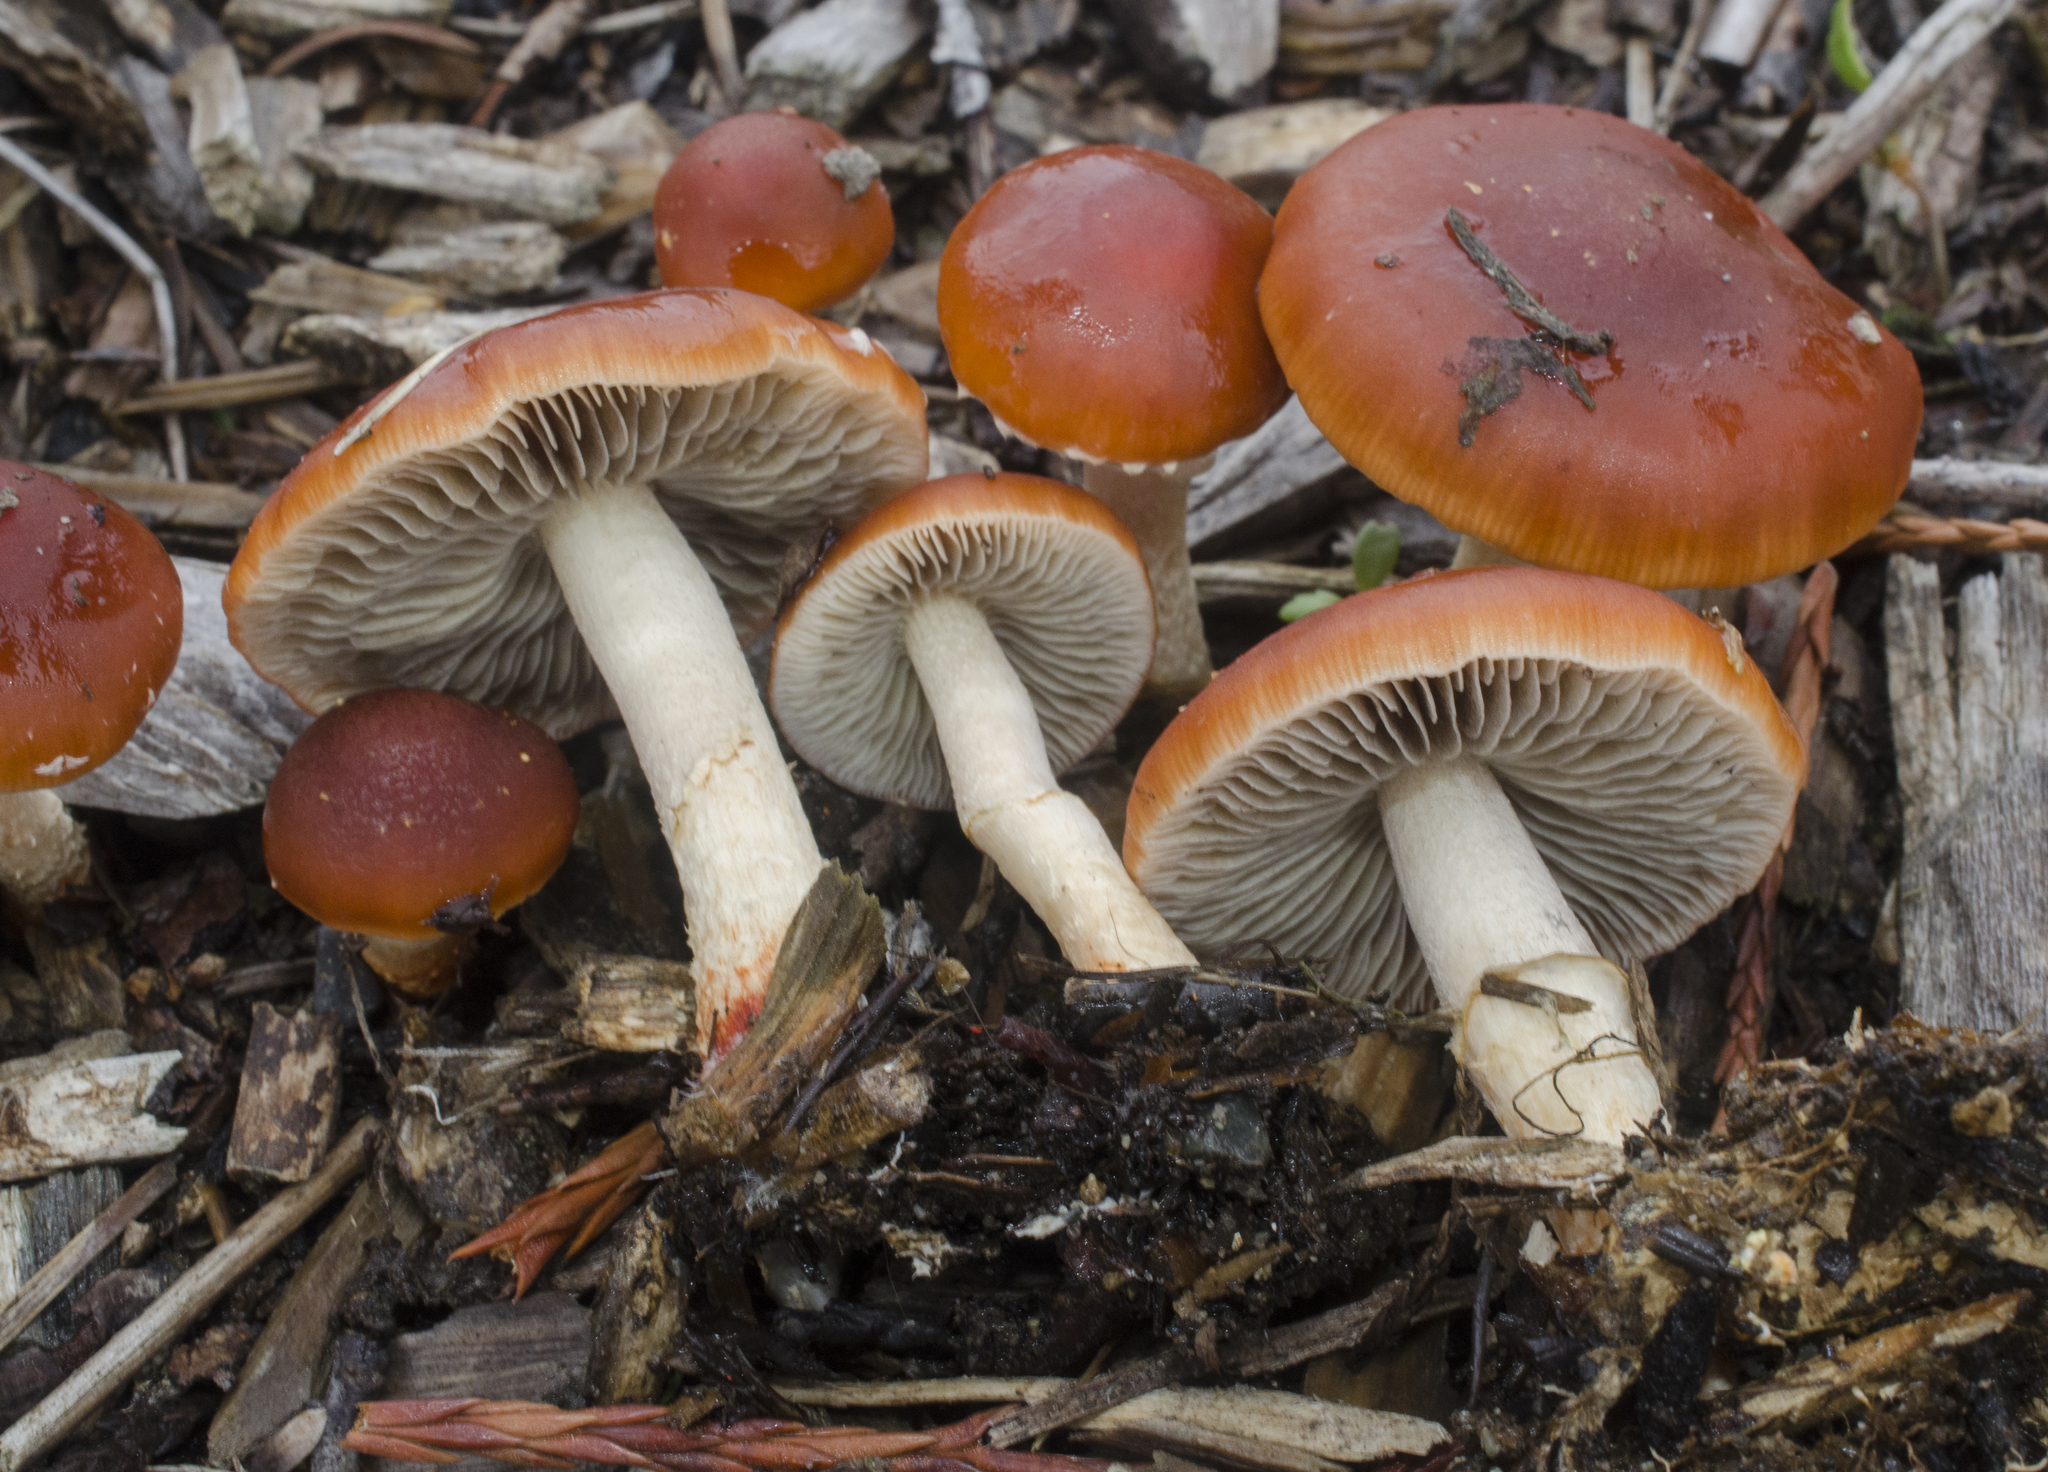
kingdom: Fungi
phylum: Basidiomycota
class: Agaricomycetes
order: Agaricales
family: Strophariaceae
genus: Leratiomyces
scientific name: Leratiomyces ceres
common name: Redlead roundhead
